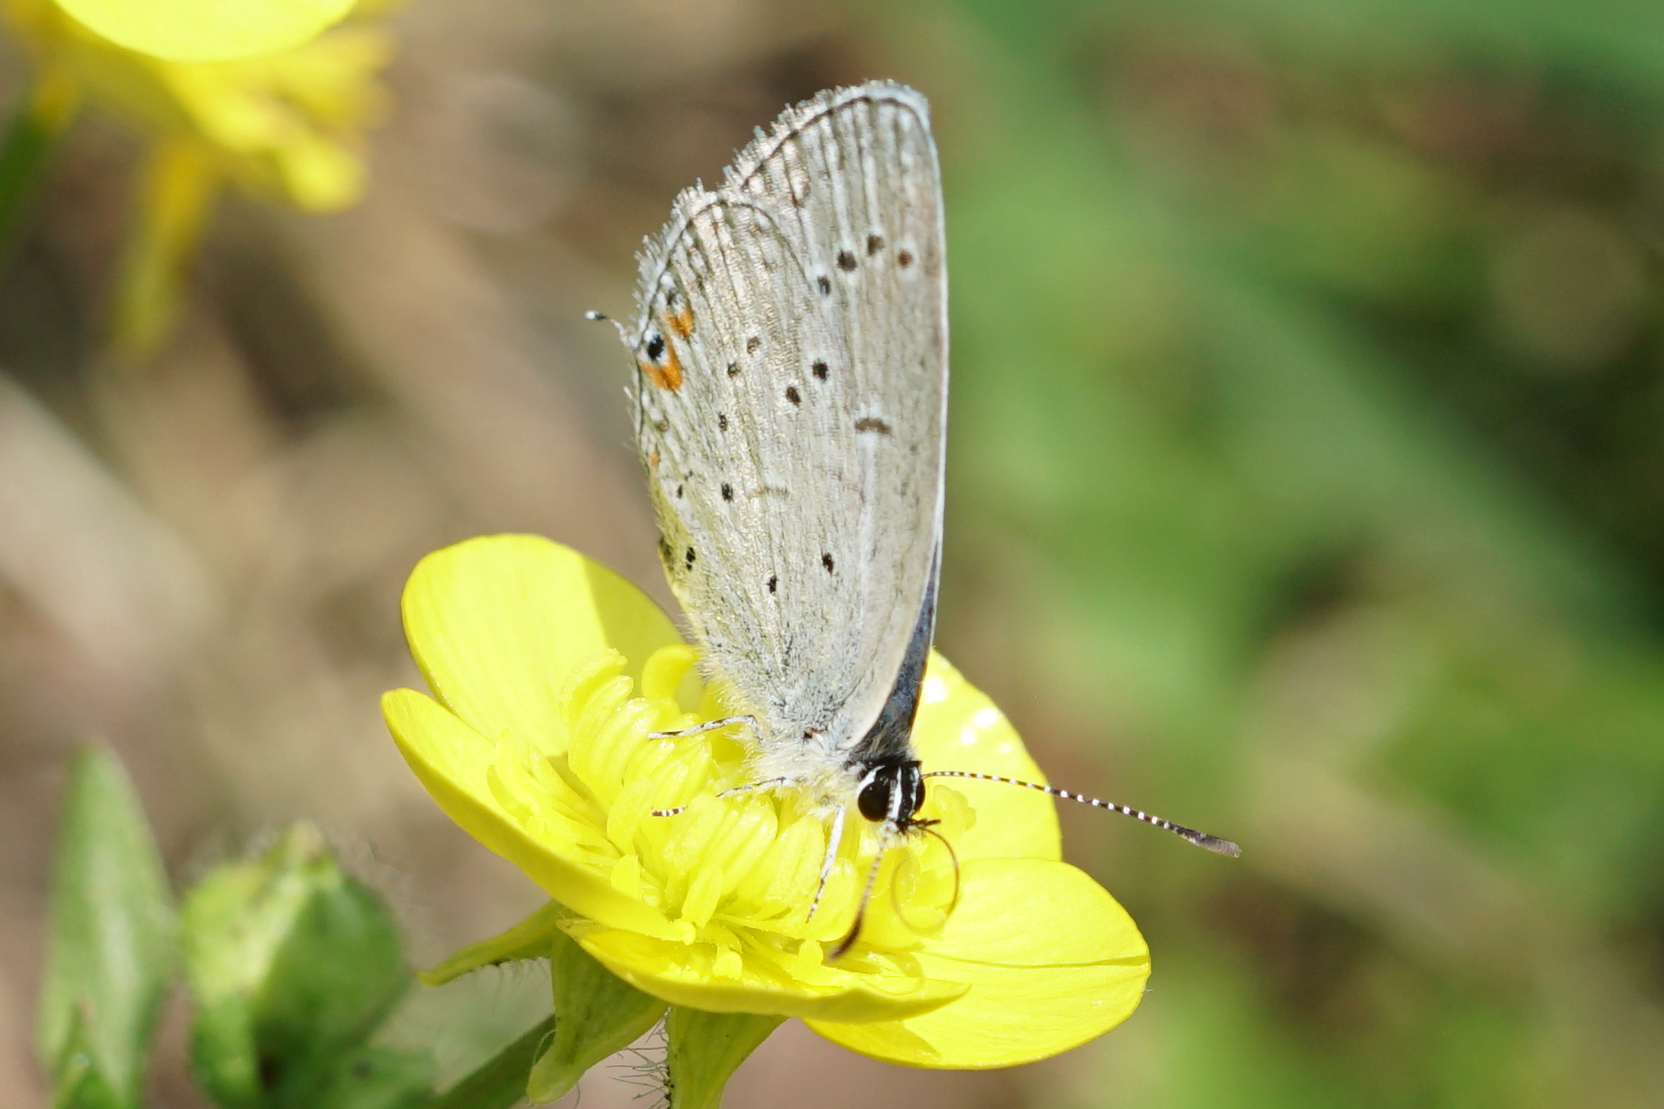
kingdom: Animalia
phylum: Arthropoda
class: Insecta
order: Lepidoptera
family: Lycaenidae
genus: Elkalyce
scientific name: Elkalyce comyntas
